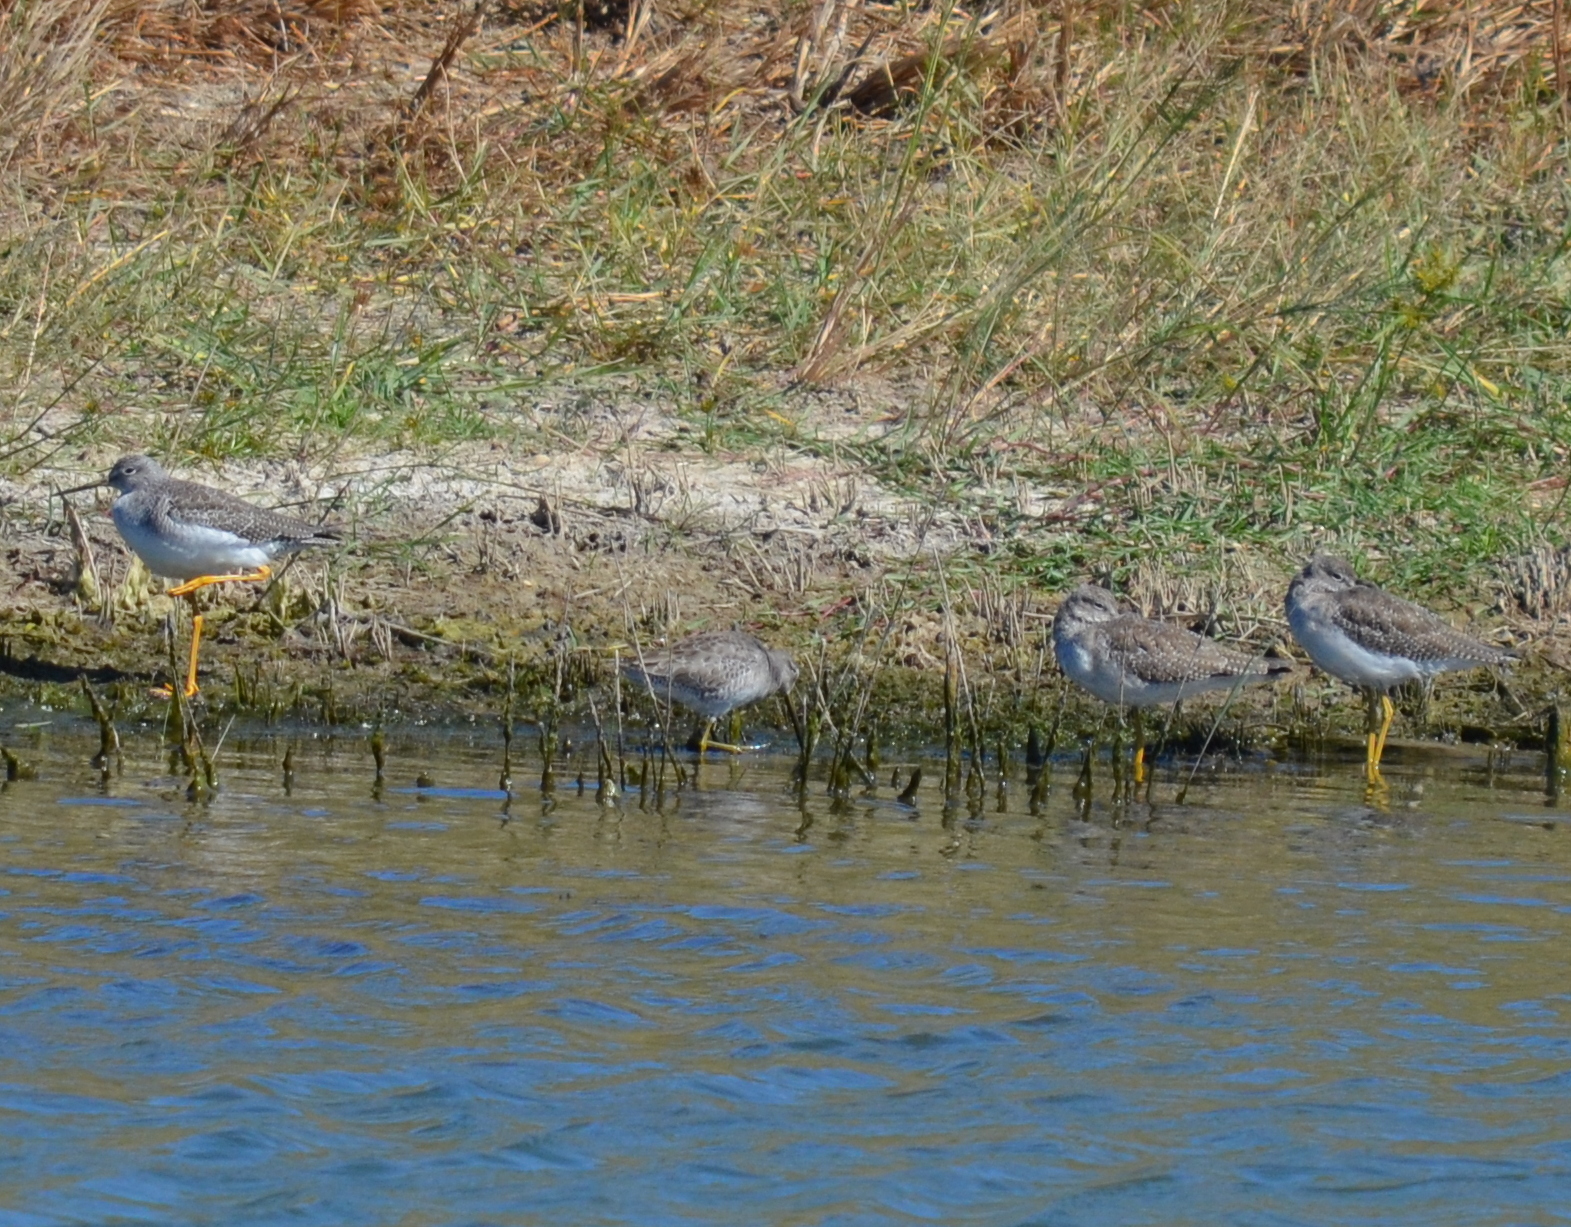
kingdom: Animalia
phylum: Chordata
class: Aves
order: Charadriiformes
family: Scolopacidae
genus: Tringa
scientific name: Tringa melanoleuca
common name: Greater yellowlegs
